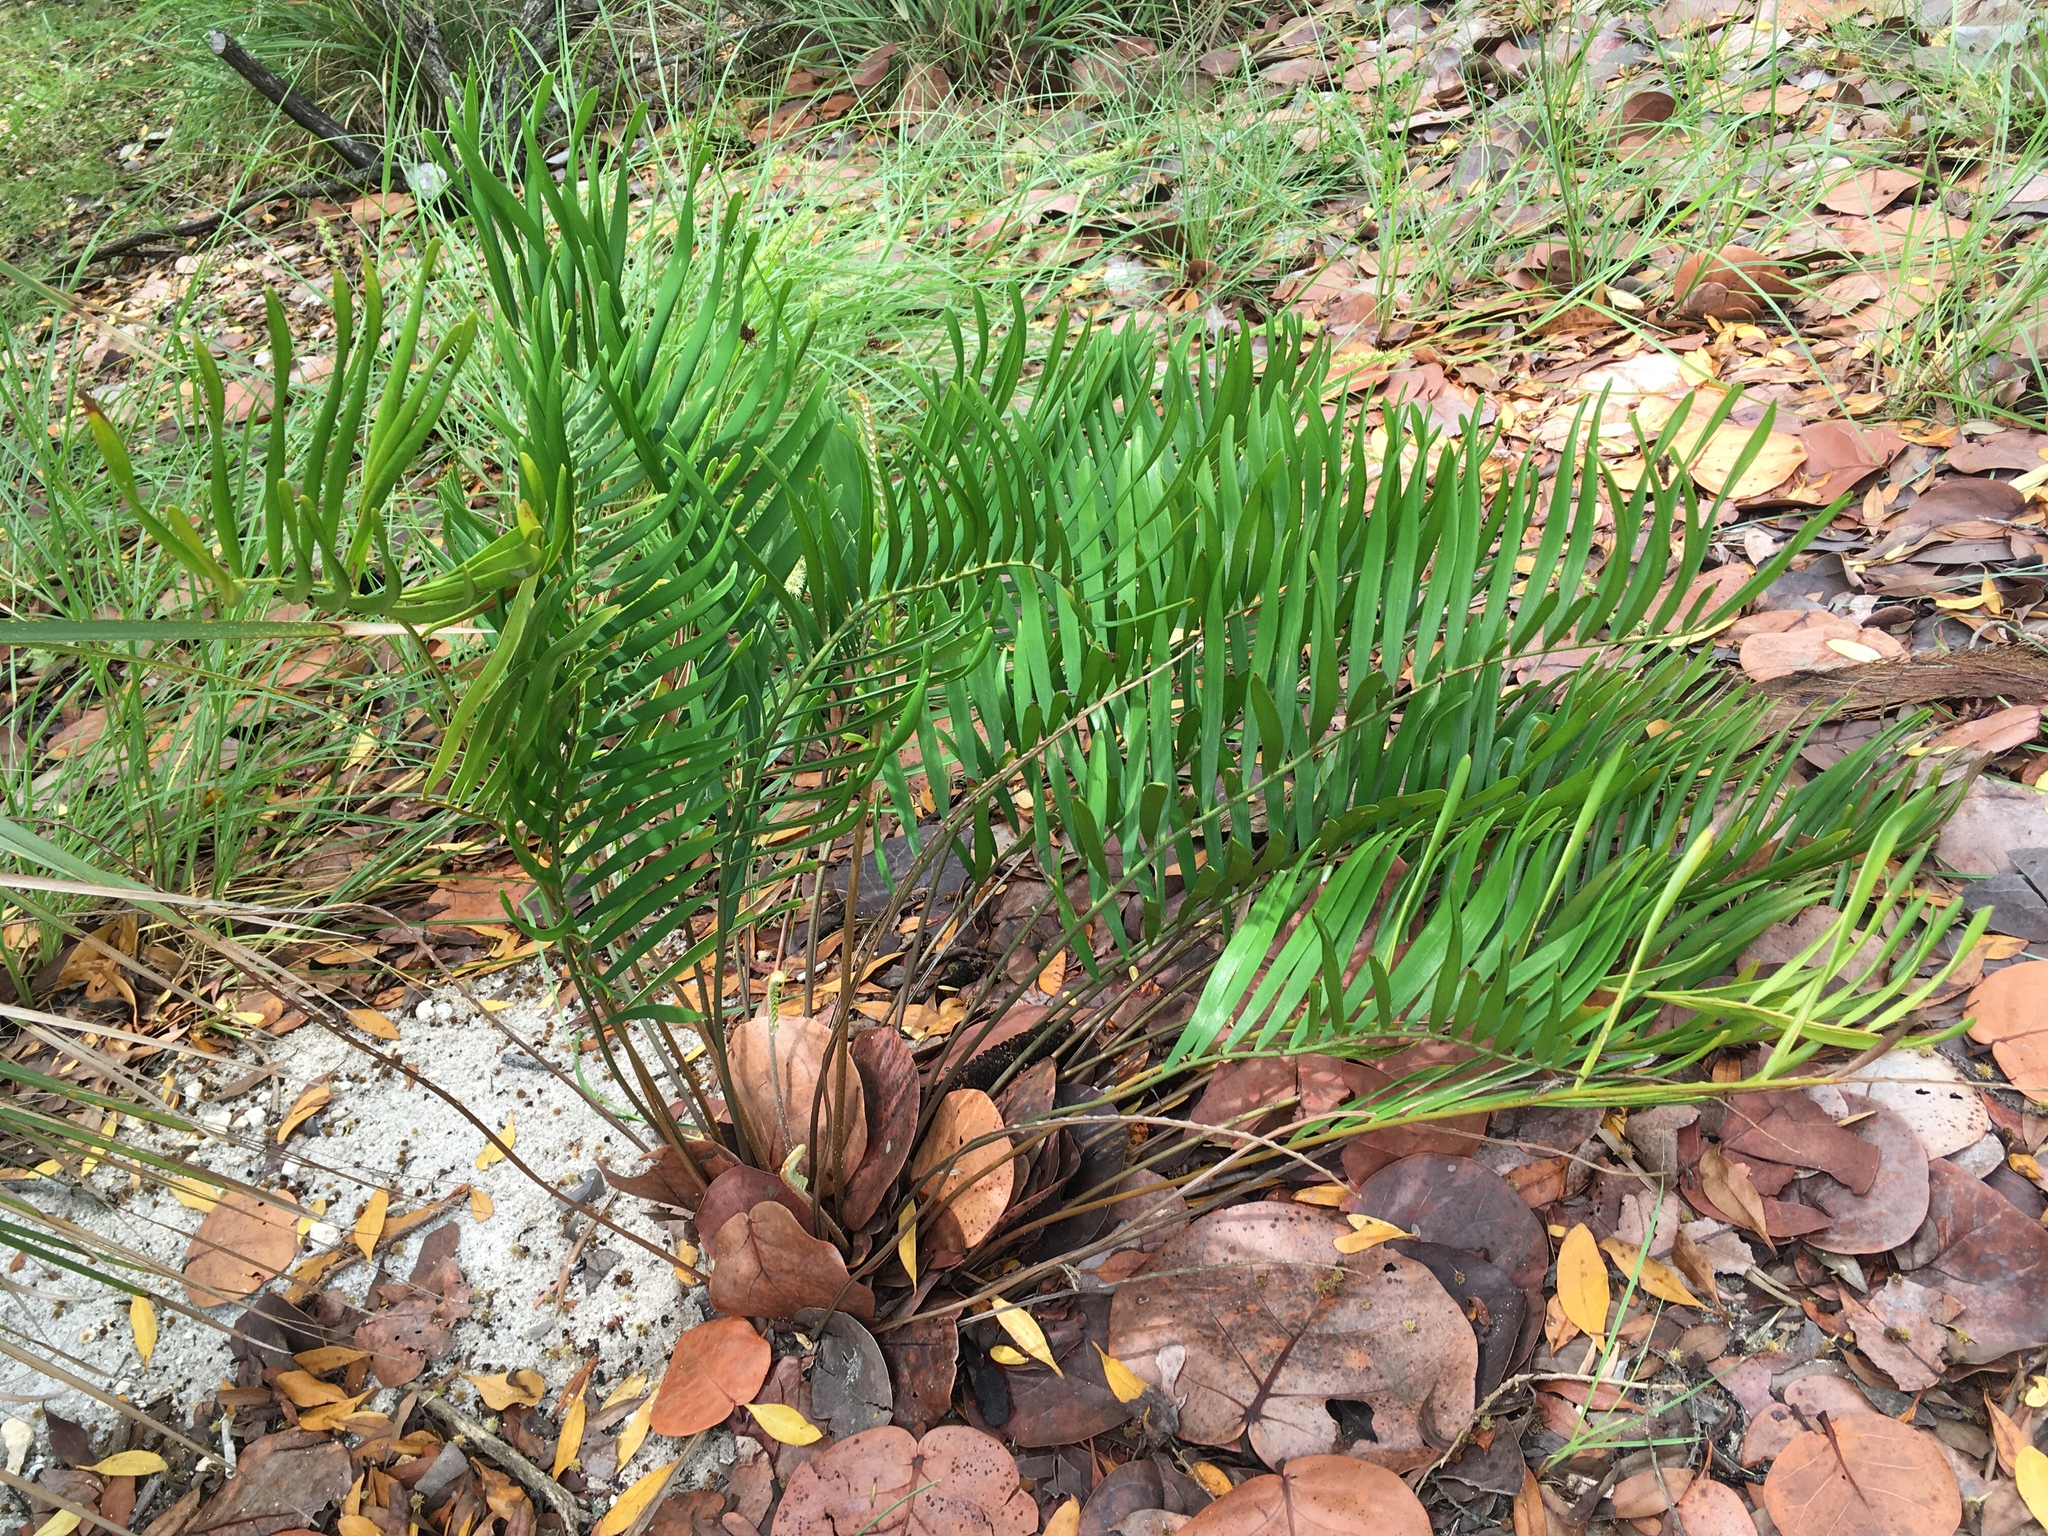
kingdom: Plantae
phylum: Tracheophyta
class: Cycadopsida
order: Cycadales
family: Zamiaceae
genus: Zamia
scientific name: Zamia integrifolia
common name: Florida arrowroot
